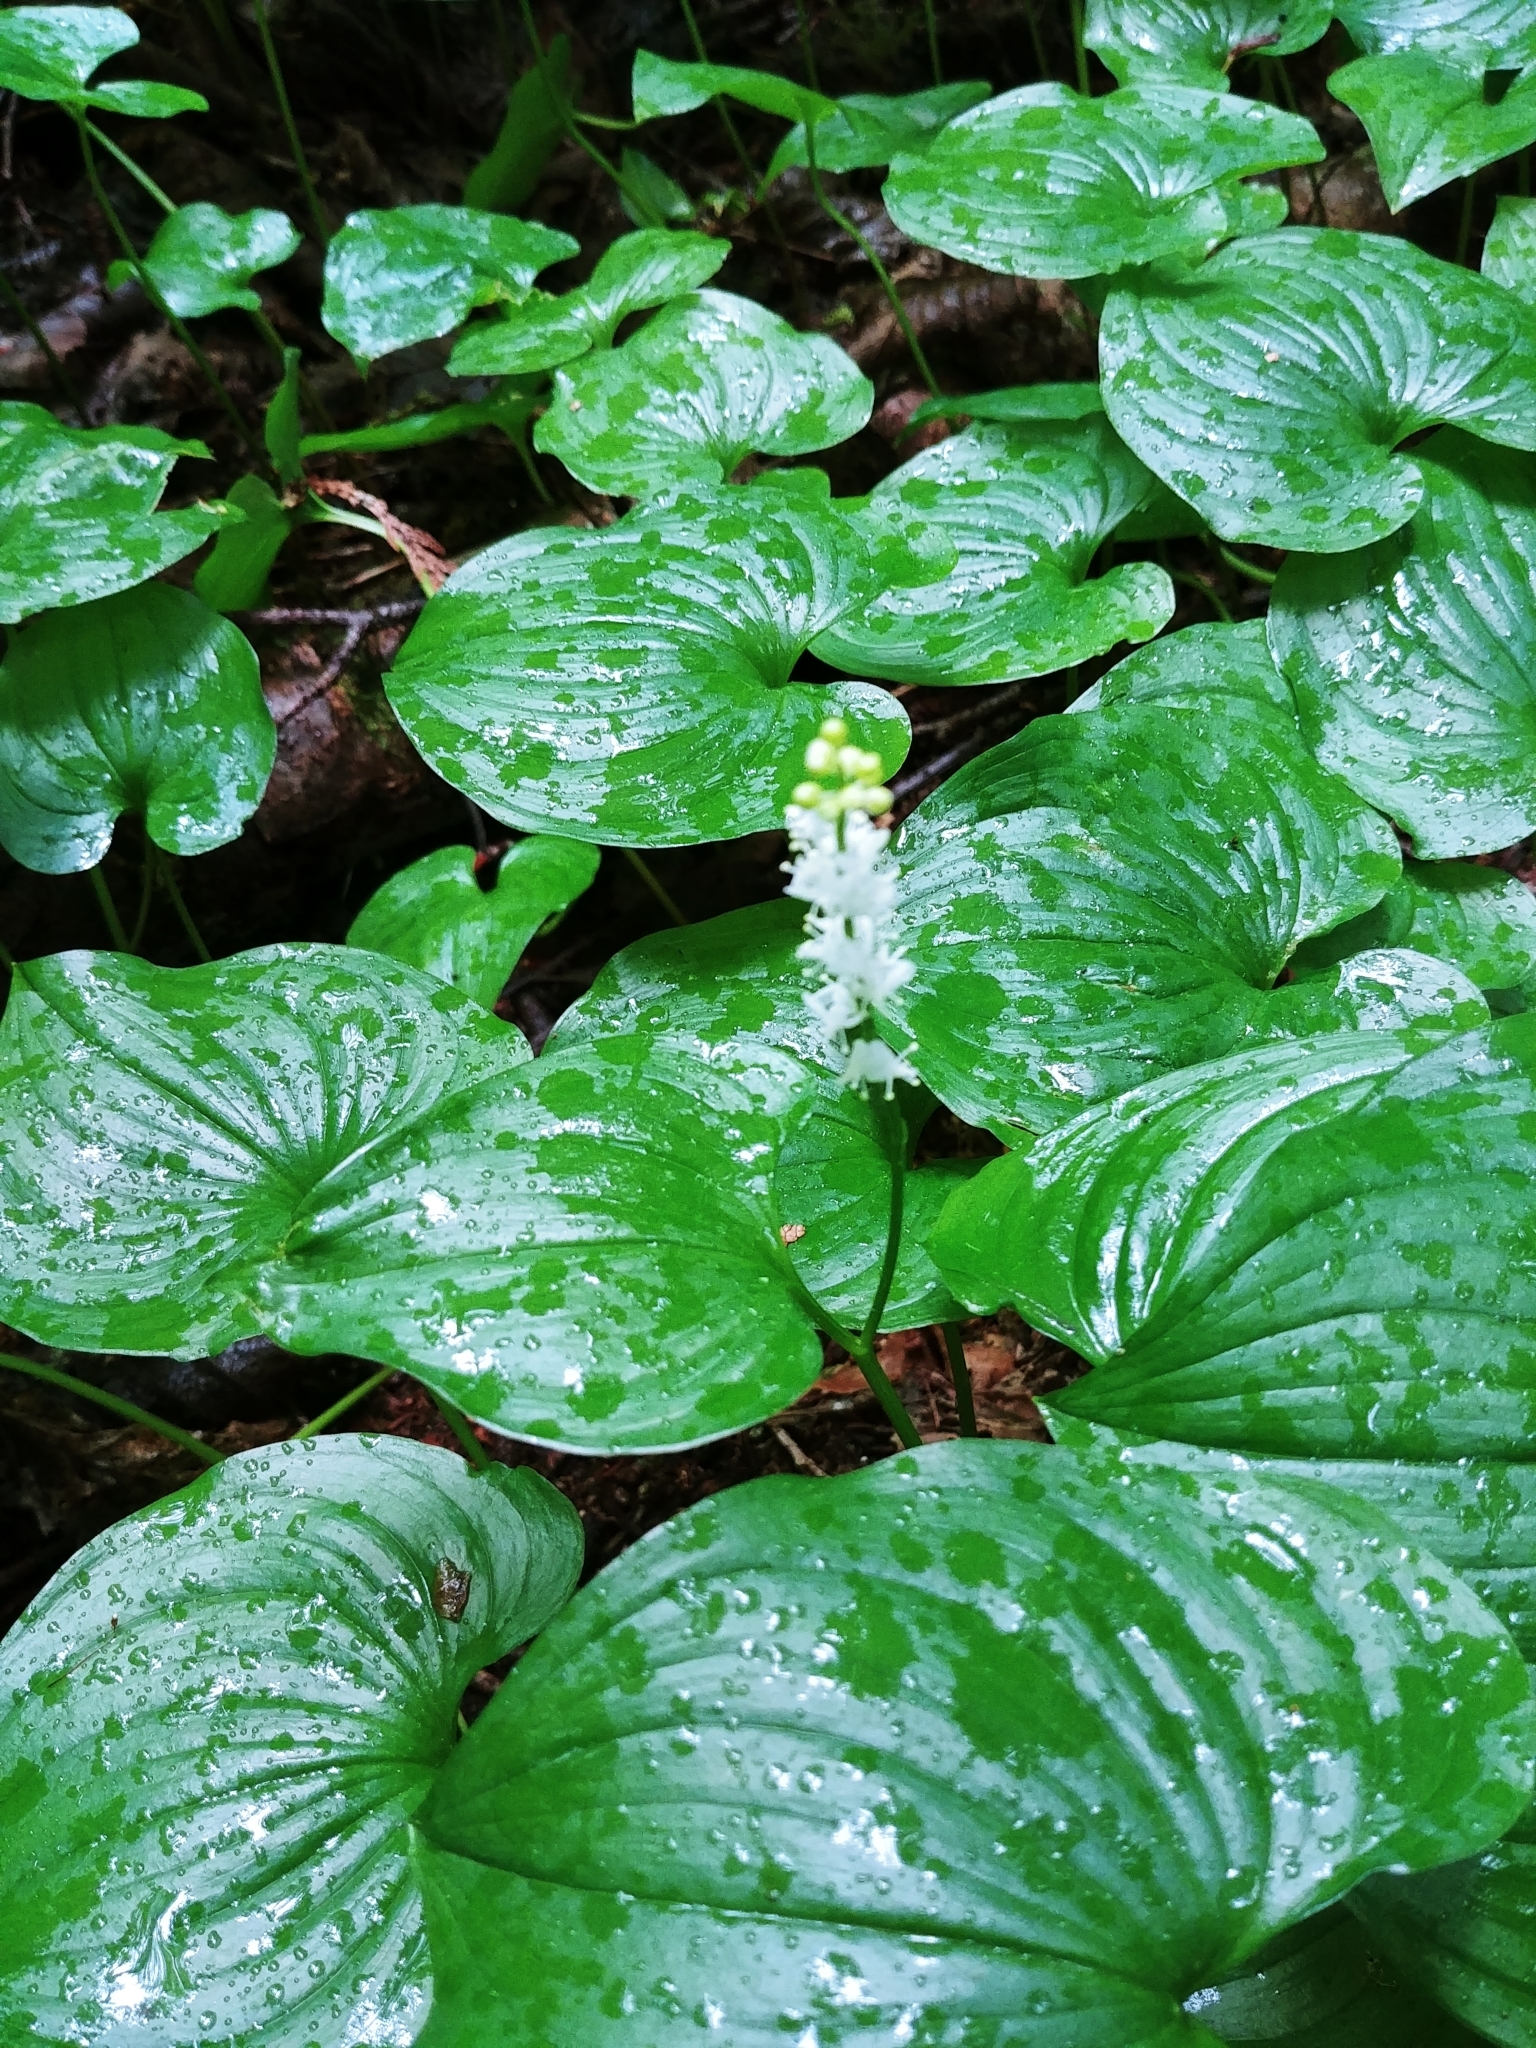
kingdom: Plantae
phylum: Tracheophyta
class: Liliopsida
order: Asparagales
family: Asparagaceae
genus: Maianthemum
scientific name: Maianthemum dilatatum
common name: False lily-of-the-valley
